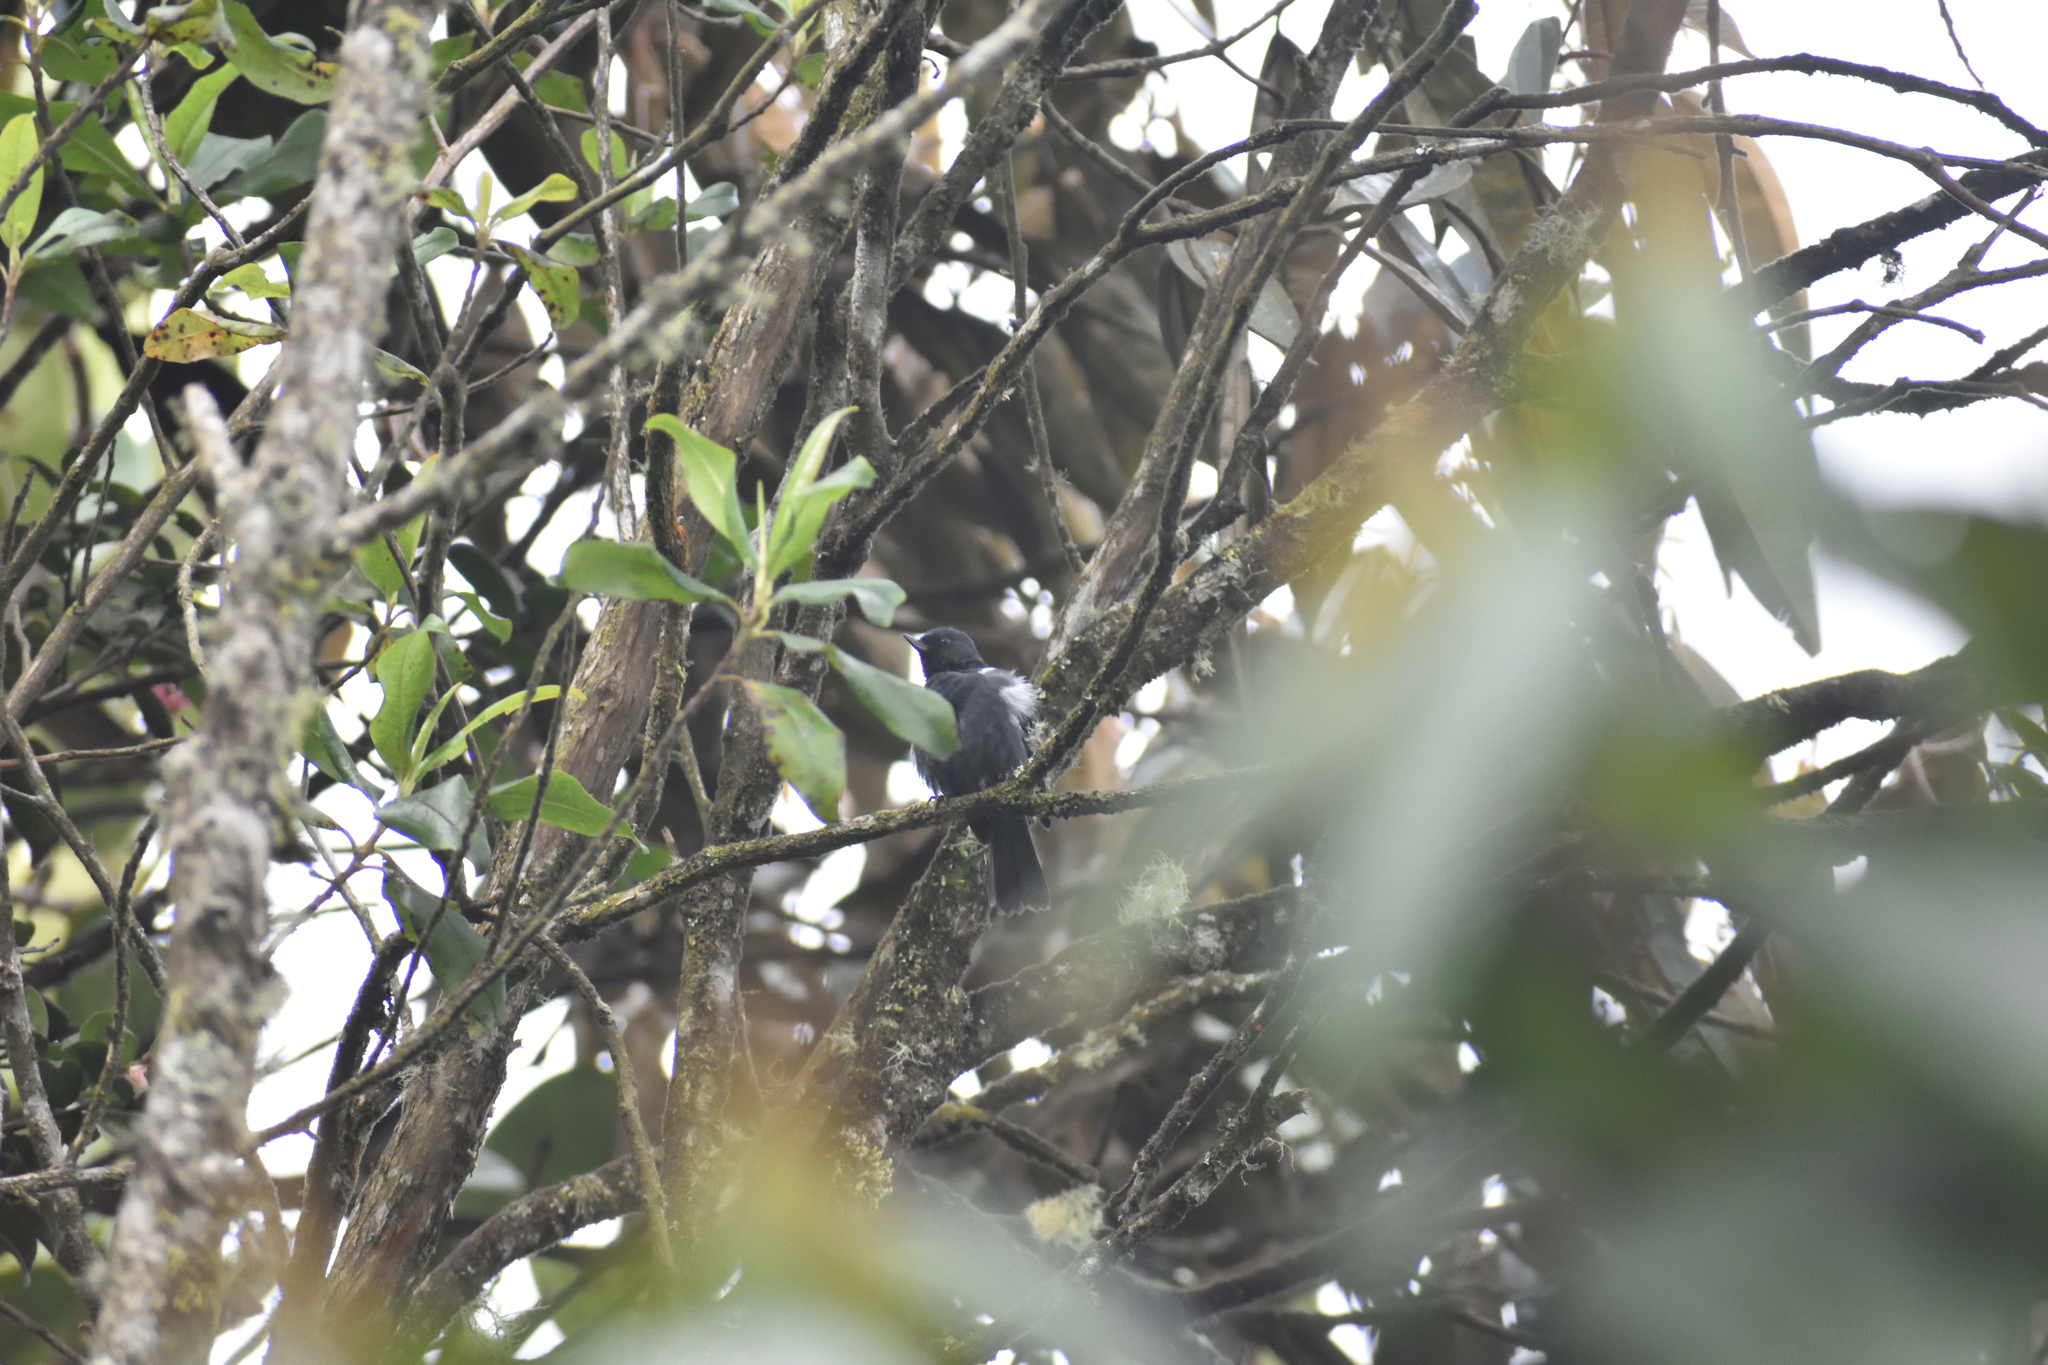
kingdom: Animalia
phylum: Chordata
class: Aves
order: Passeriformes
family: Thraupidae
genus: Diglossa
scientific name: Diglossa albilatera
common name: White-sided flowerpiercer
